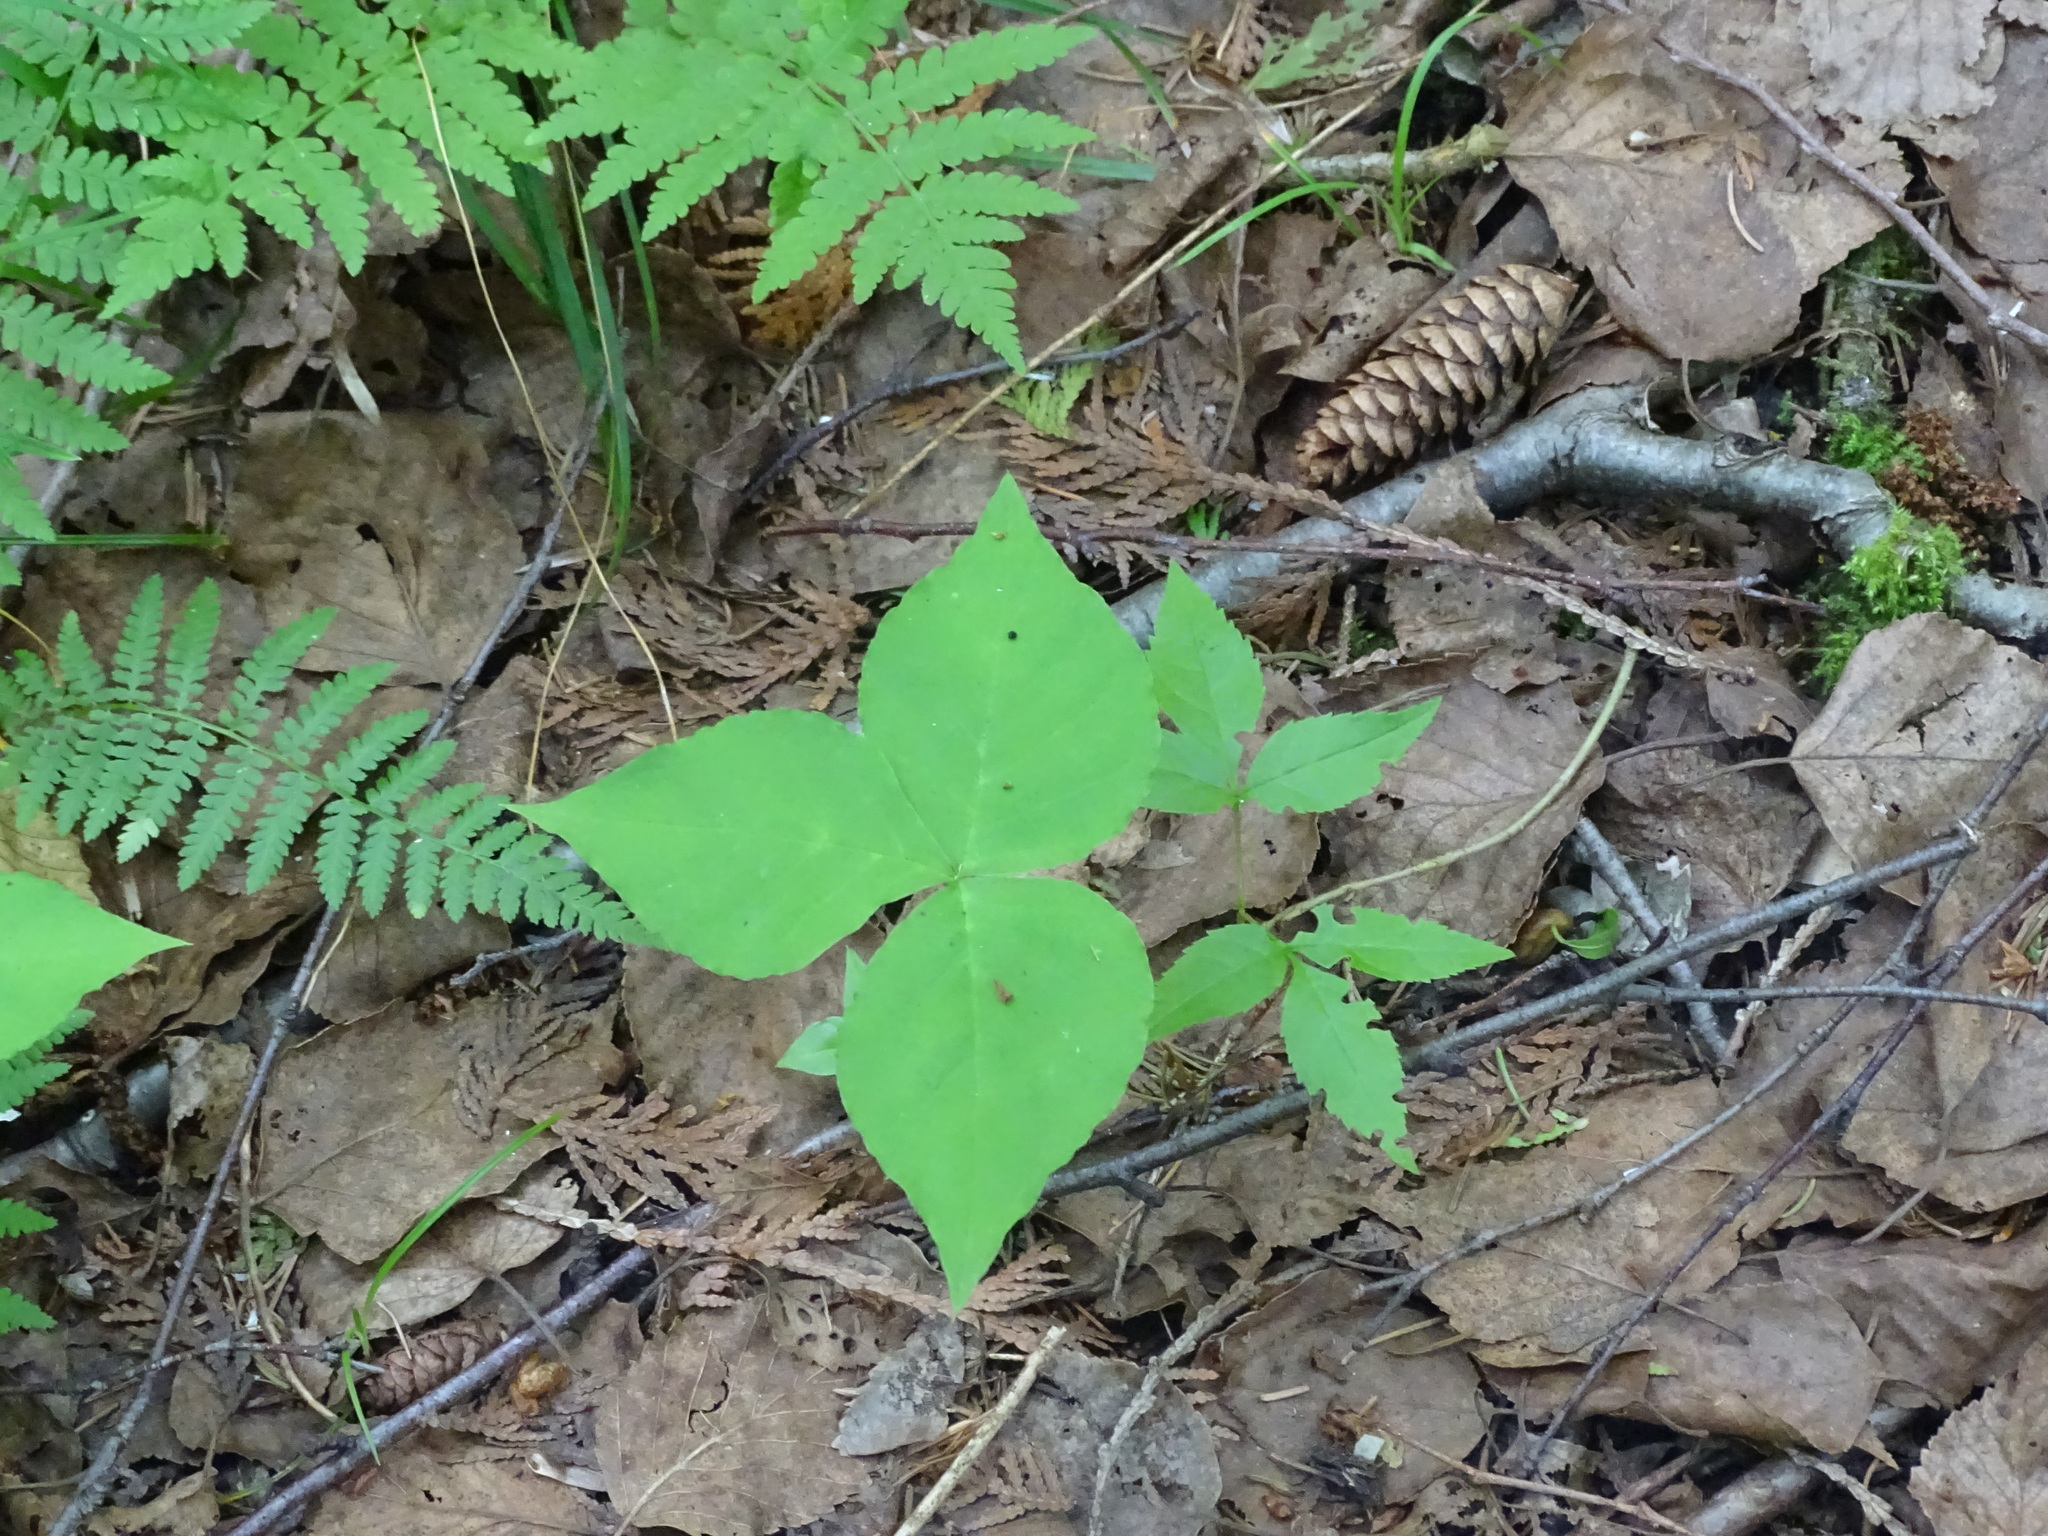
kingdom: Plantae
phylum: Tracheophyta
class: Liliopsida
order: Alismatales
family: Araceae
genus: Arisaema
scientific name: Arisaema triphyllum
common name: Jack-in-the-pulpit
